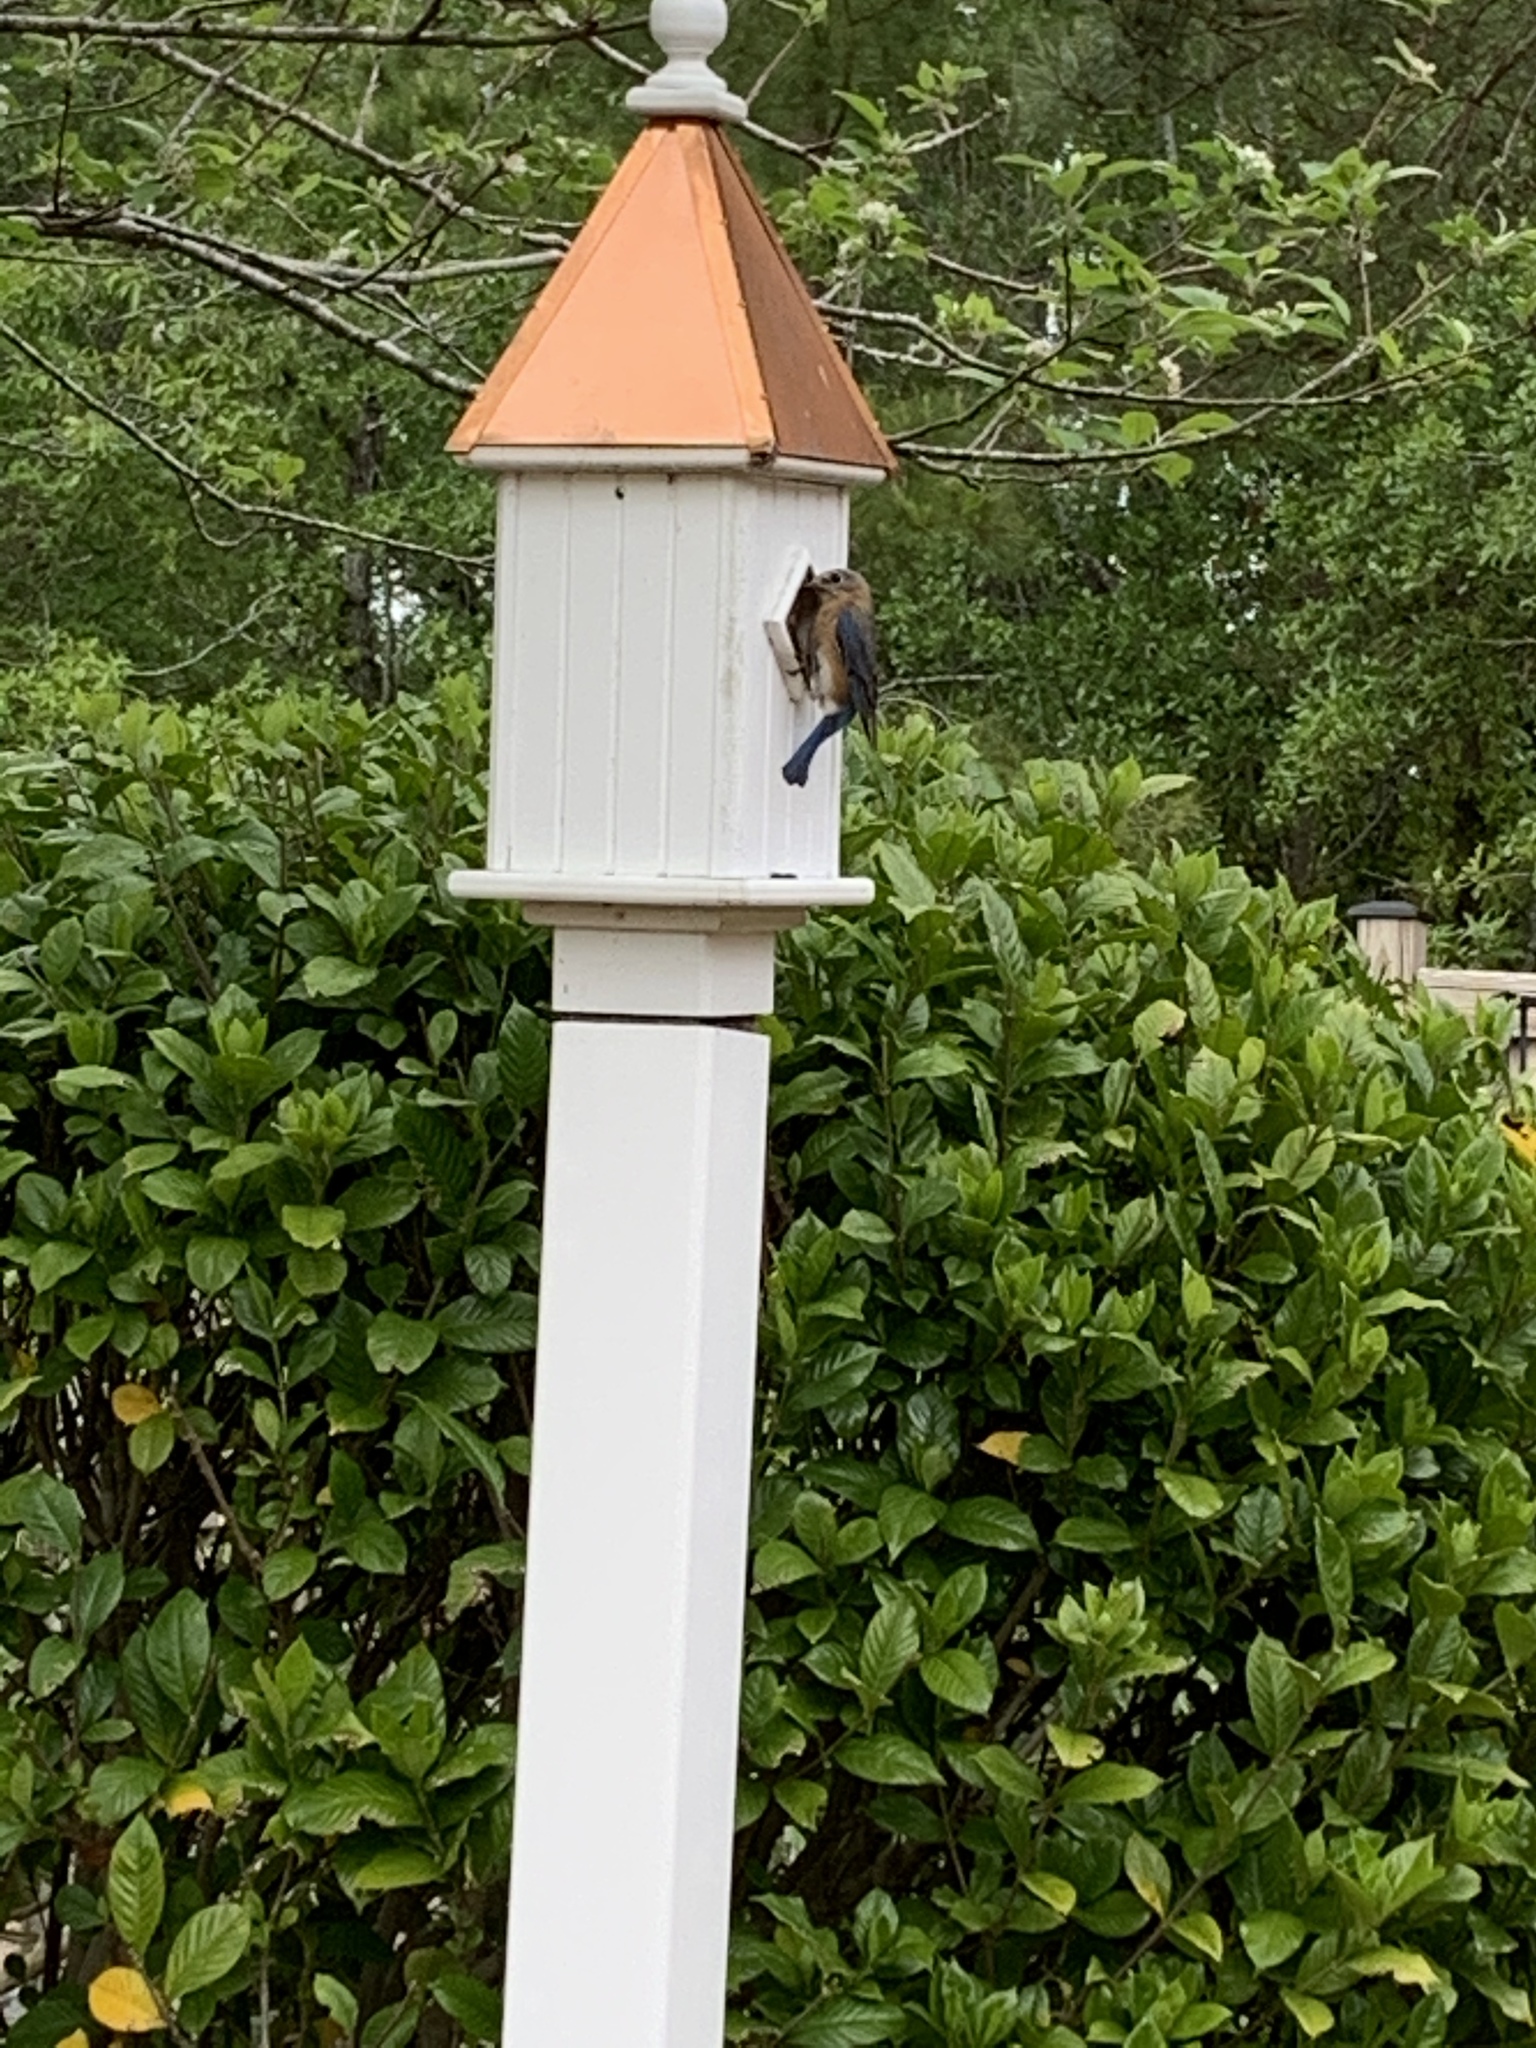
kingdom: Animalia
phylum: Chordata
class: Aves
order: Passeriformes
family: Turdidae
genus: Sialia
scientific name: Sialia sialis
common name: Eastern bluebird
